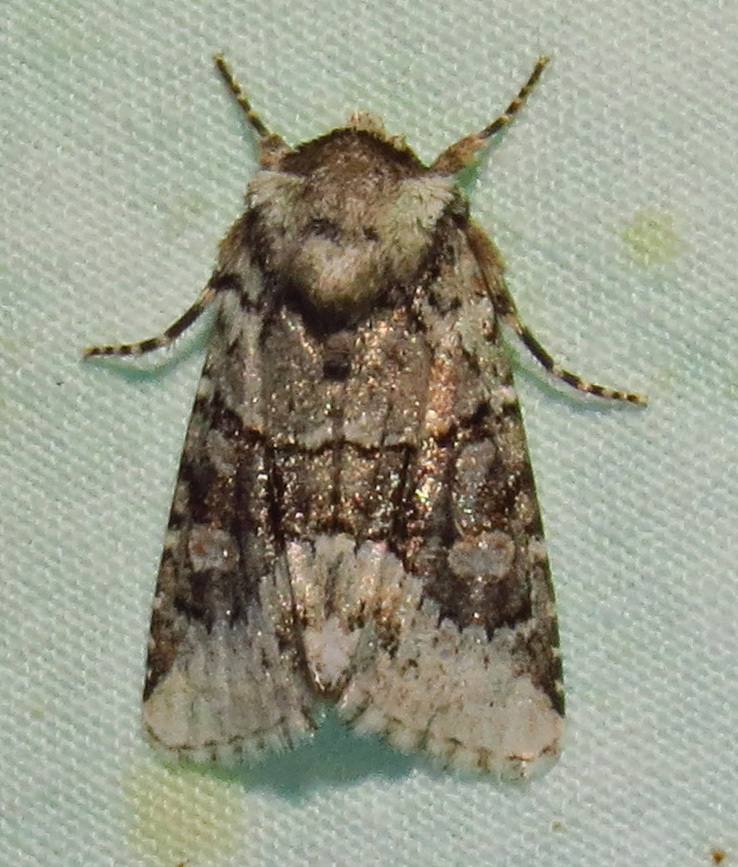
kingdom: Animalia
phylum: Arthropoda
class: Insecta
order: Lepidoptera
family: Noctuidae
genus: Lacinipolia
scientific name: Lacinipolia explicata
